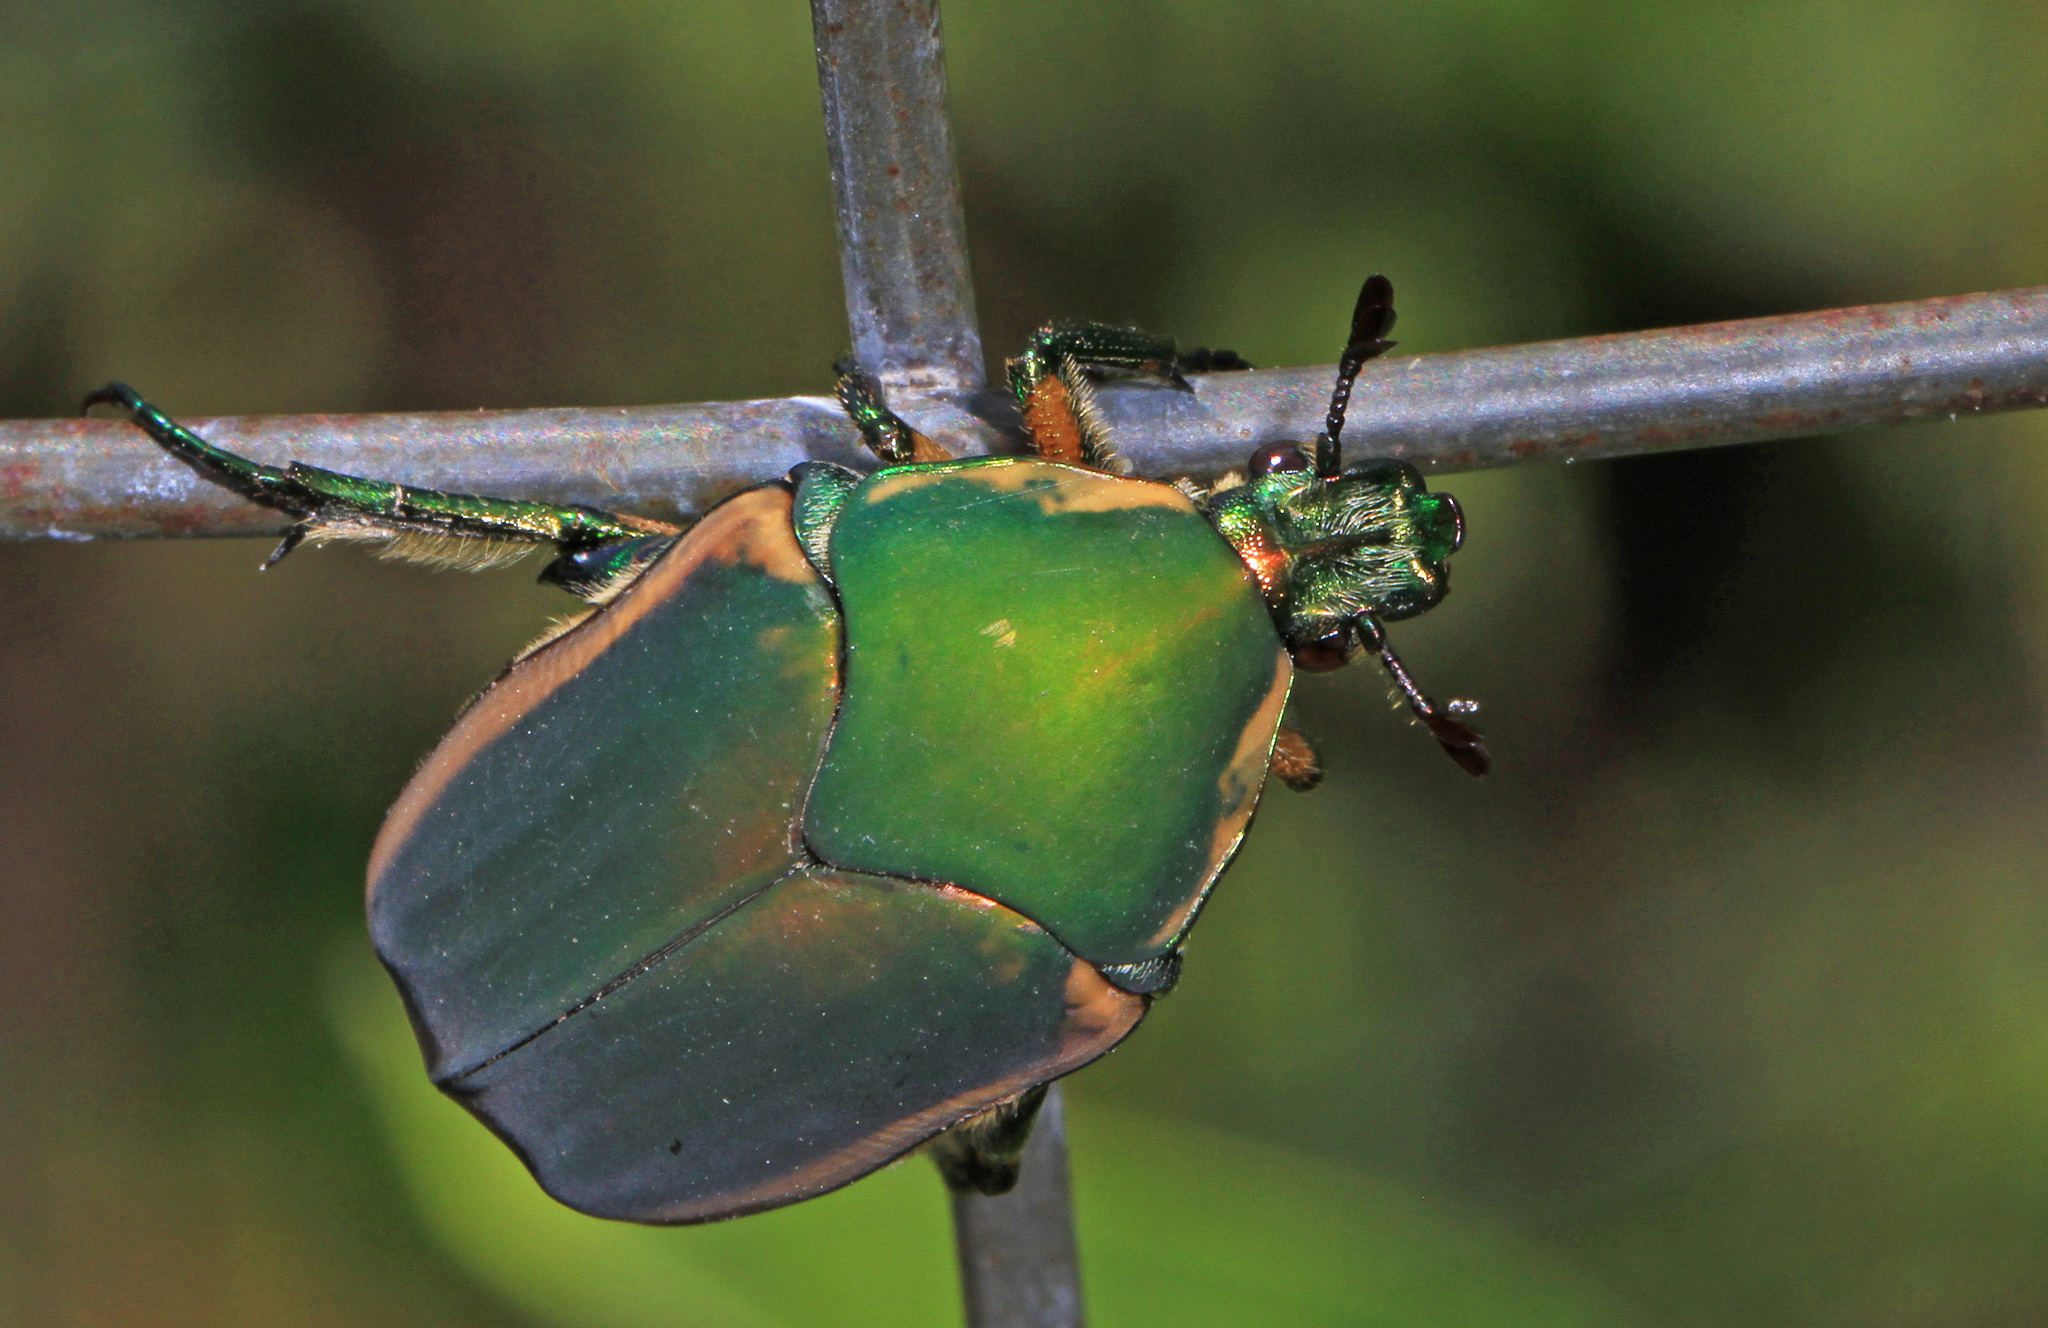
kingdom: Animalia
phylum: Arthropoda
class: Insecta
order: Coleoptera
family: Scarabaeidae
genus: Cotinis
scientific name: Cotinis nitida
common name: Common green june beetle
